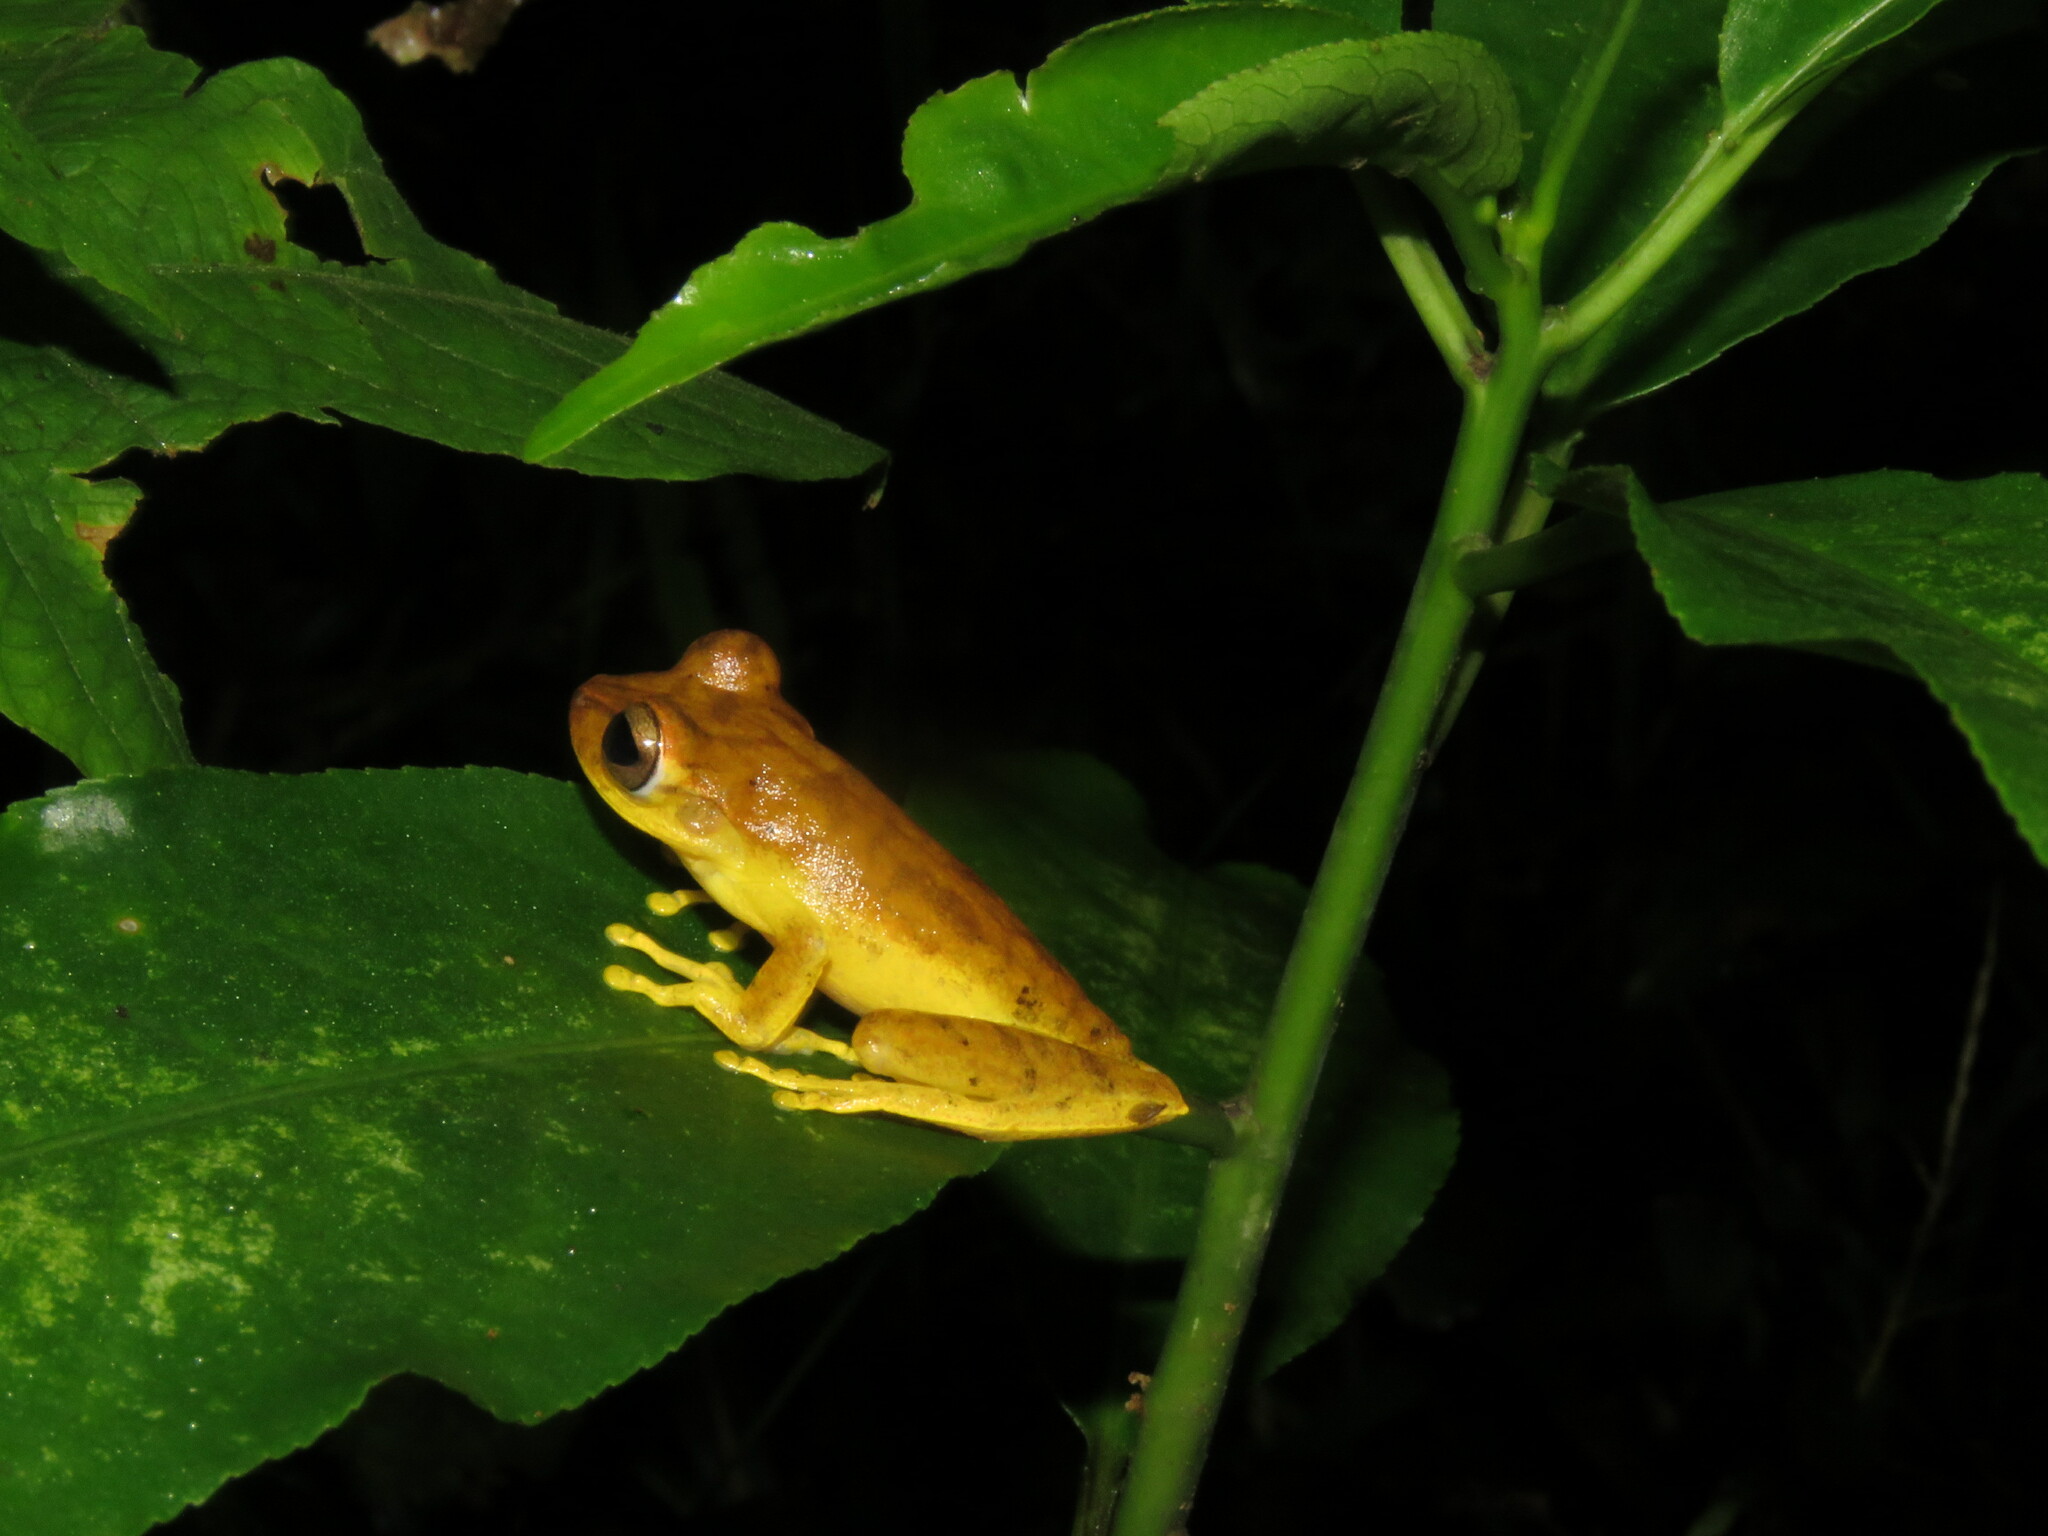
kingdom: Animalia
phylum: Chordata
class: Amphibia
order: Anura
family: Hylidae
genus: Boana
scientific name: Boana steinbachi
